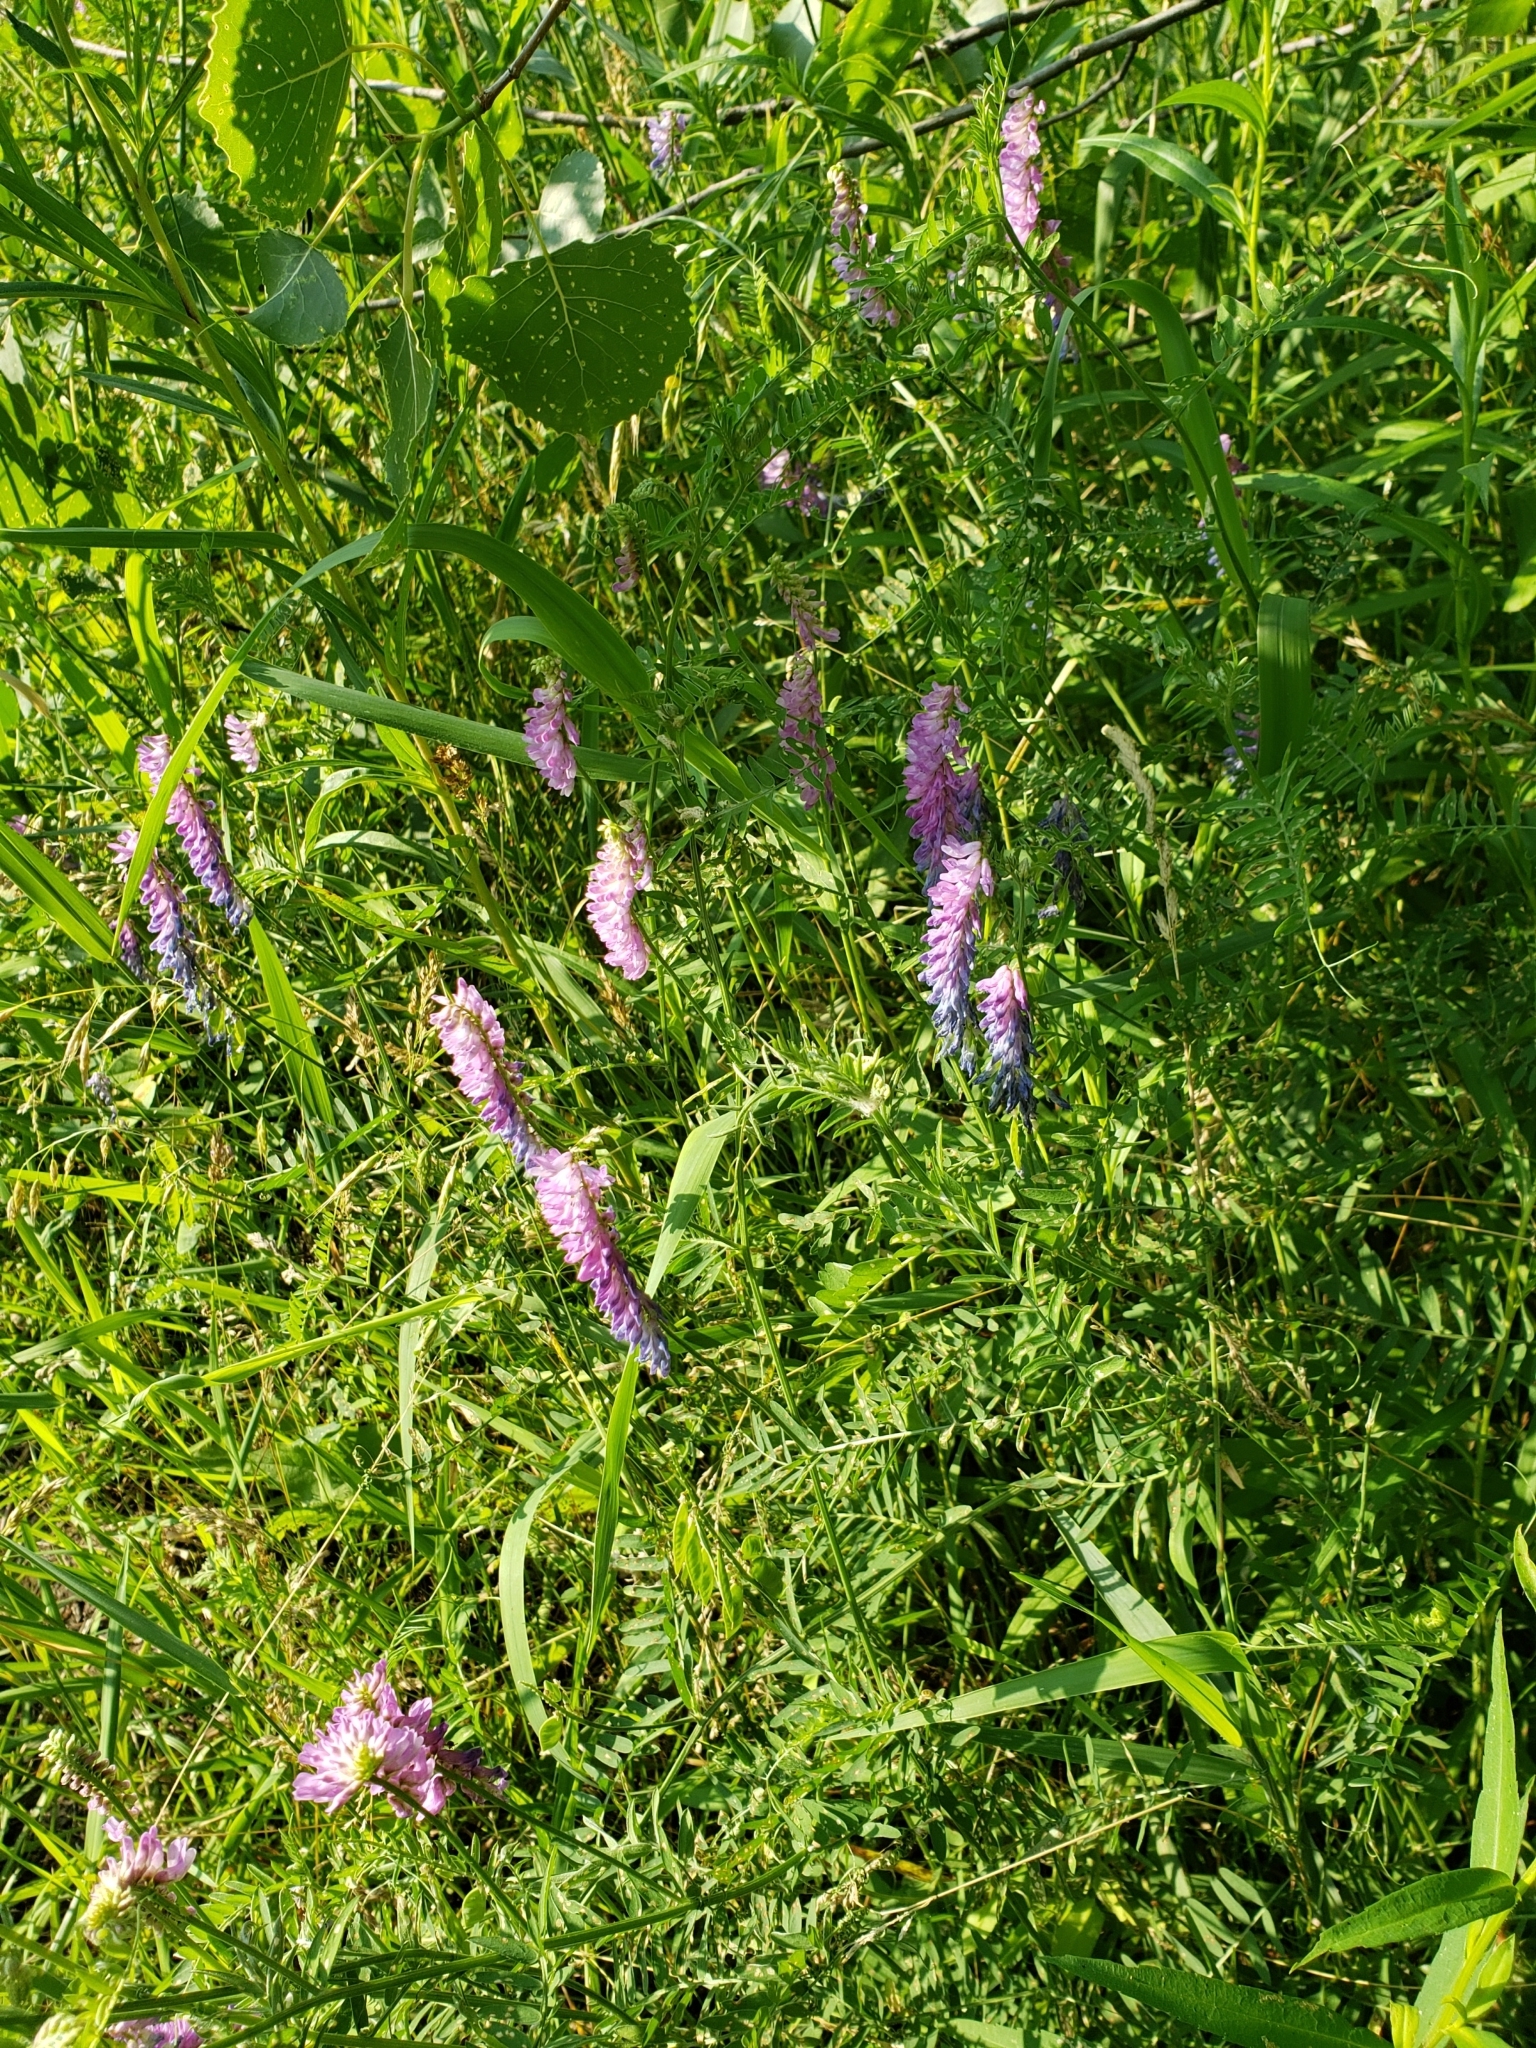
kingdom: Plantae
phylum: Tracheophyta
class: Magnoliopsida
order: Fabales
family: Fabaceae
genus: Vicia
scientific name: Vicia cracca
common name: Bird vetch
